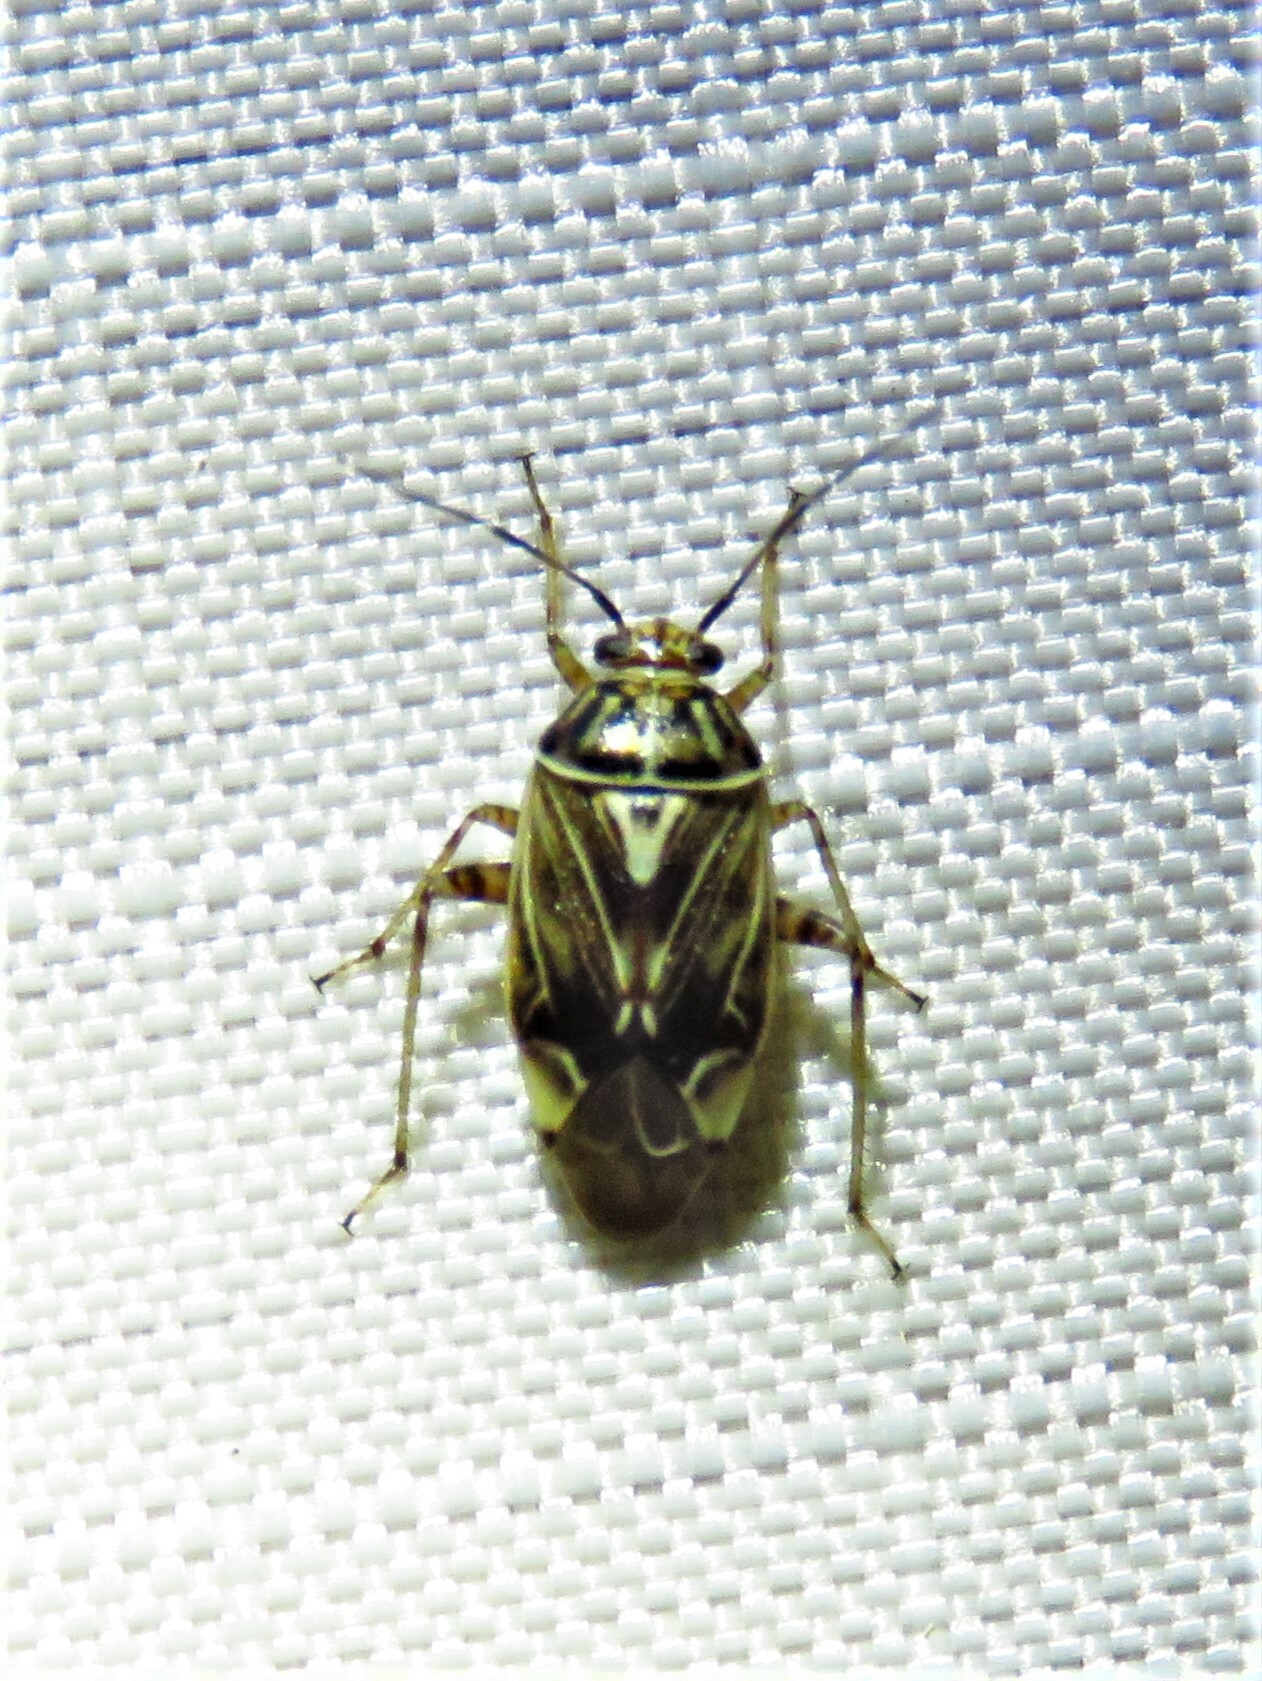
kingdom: Animalia
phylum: Arthropoda
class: Insecta
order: Hemiptera
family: Miridae
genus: Lygus
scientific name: Lygus lineolaris
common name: North american tarnished plant bug
